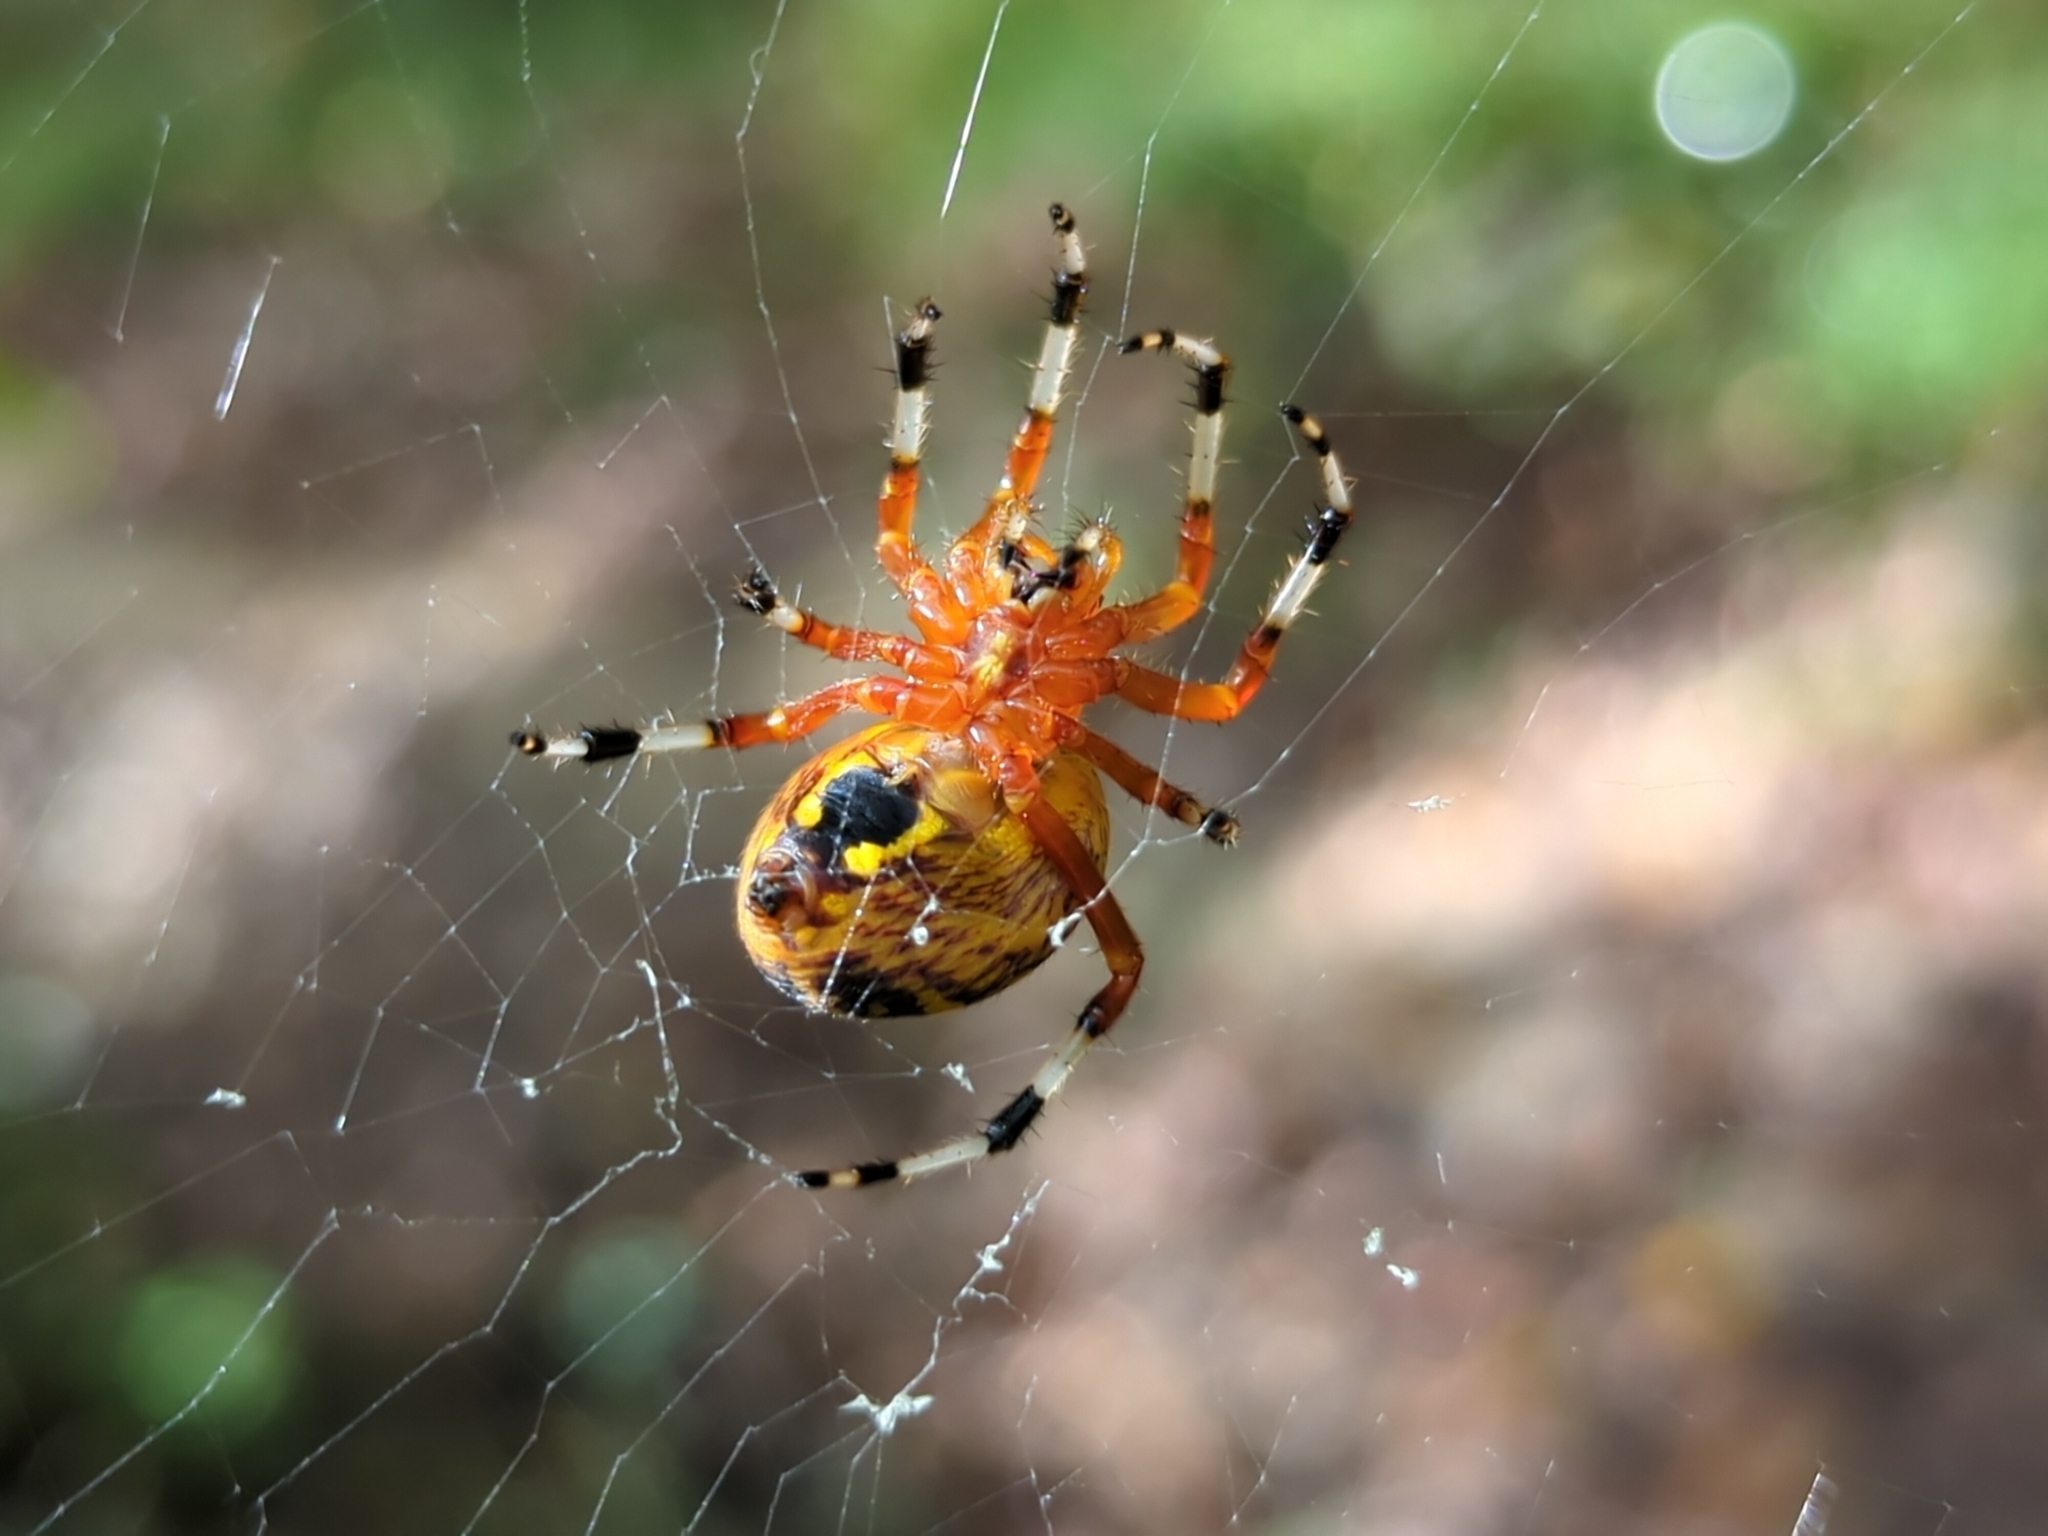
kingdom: Animalia
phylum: Arthropoda
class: Arachnida
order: Araneae
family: Araneidae
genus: Araneus
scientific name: Araneus marmoreus
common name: Marbled orbweaver
